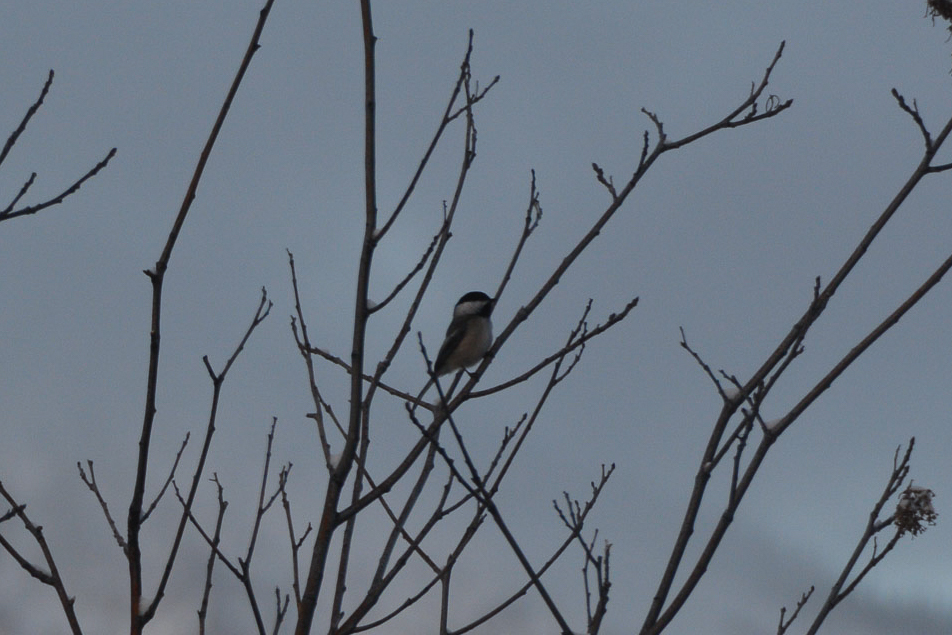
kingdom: Animalia
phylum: Chordata
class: Aves
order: Passeriformes
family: Paridae
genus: Poecile
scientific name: Poecile atricapillus
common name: Black-capped chickadee
